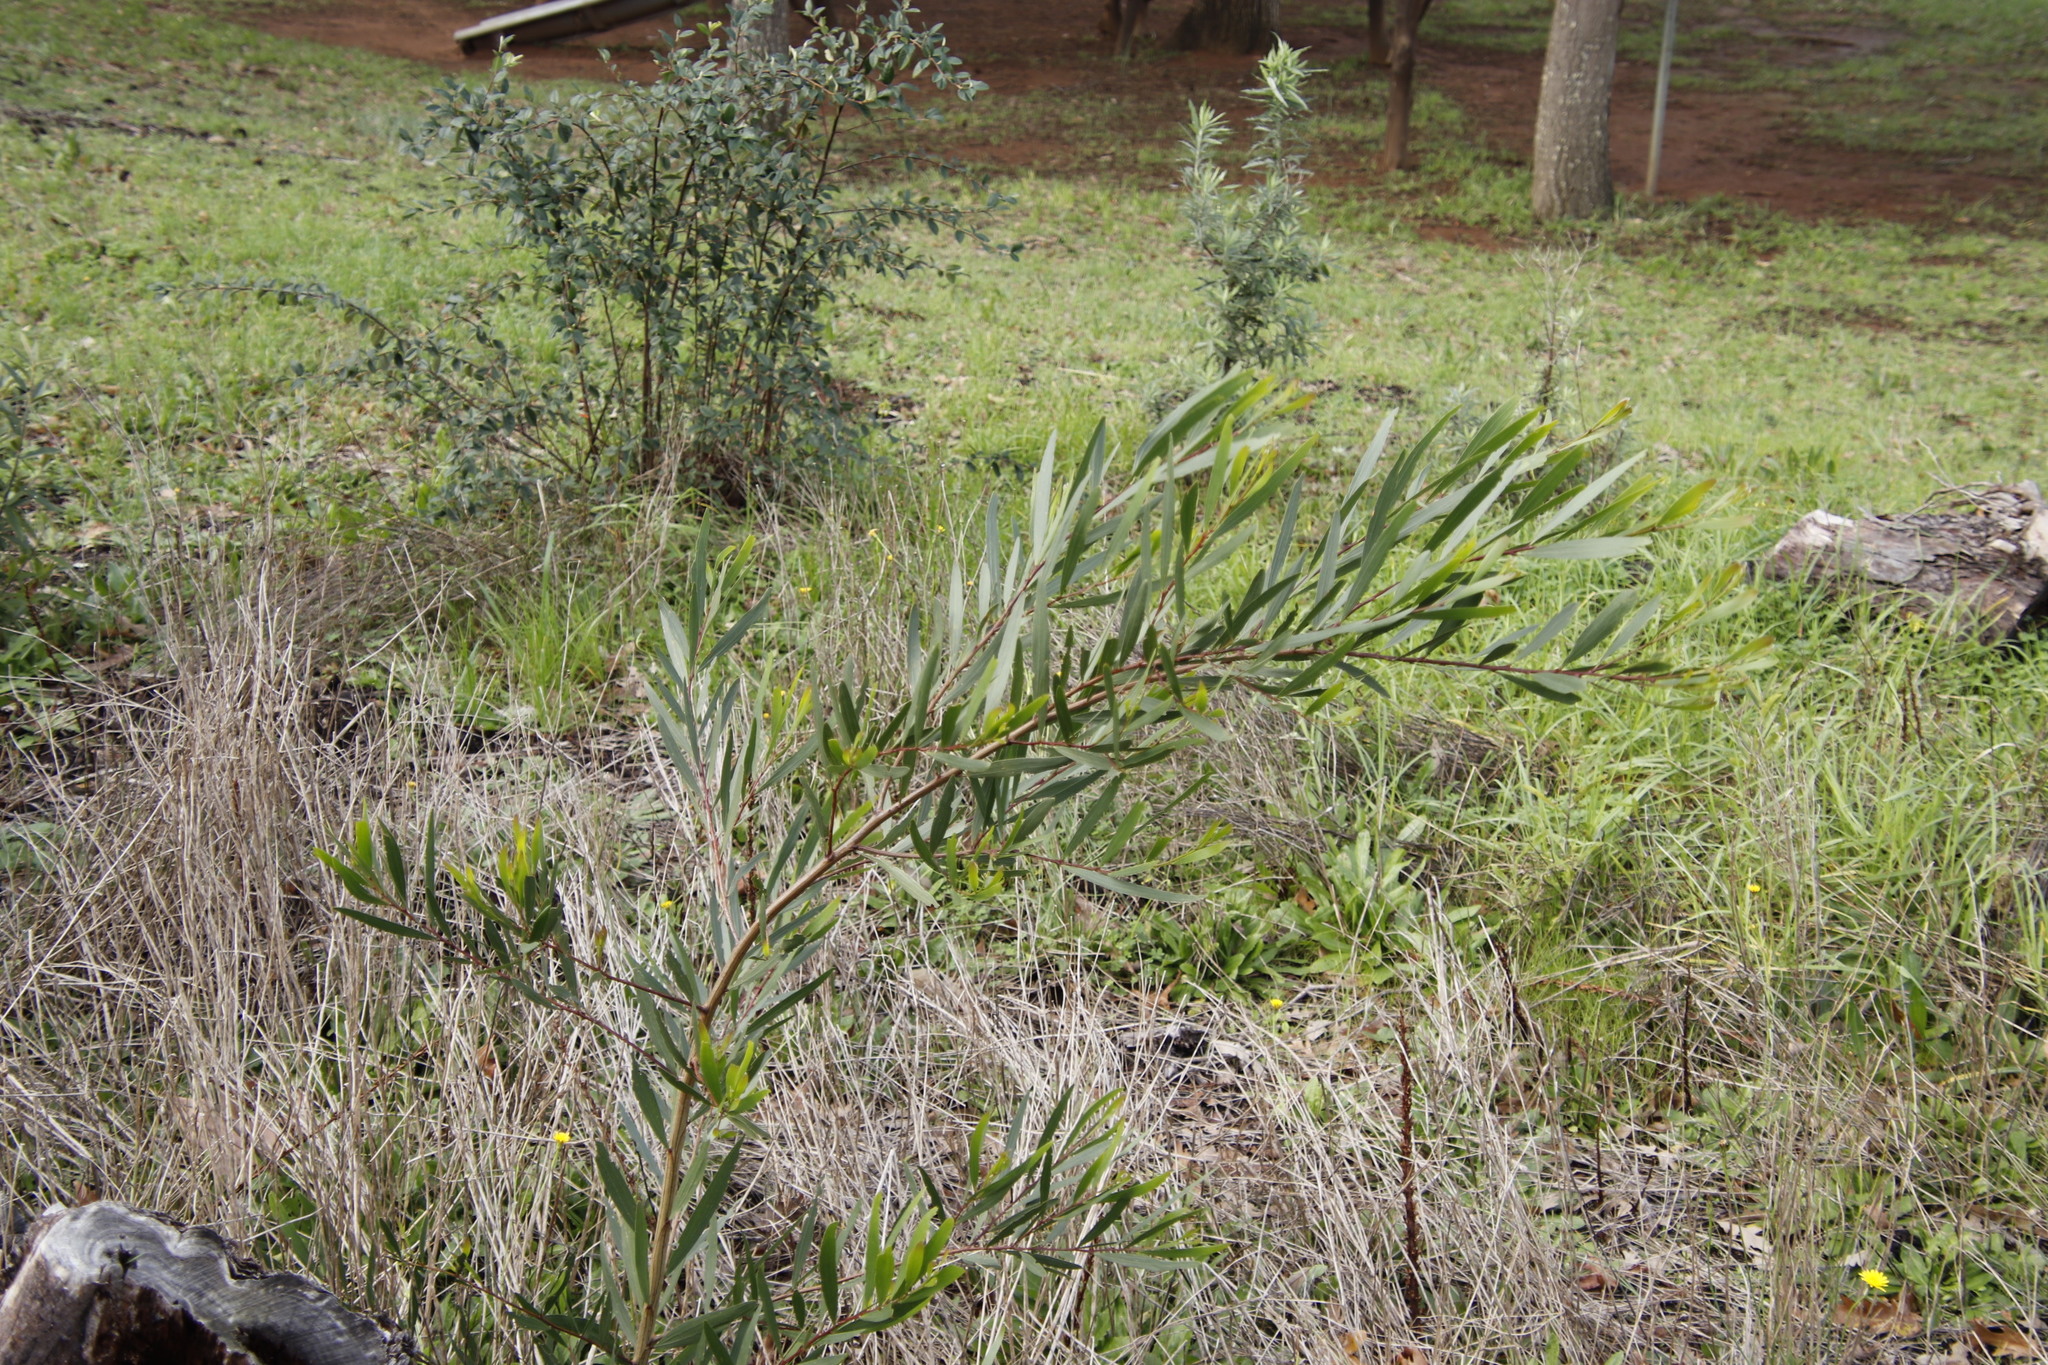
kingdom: Plantae
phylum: Tracheophyta
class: Magnoliopsida
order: Fabales
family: Fabaceae
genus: Acacia
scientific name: Acacia longifolia
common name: Sydney golden wattle
